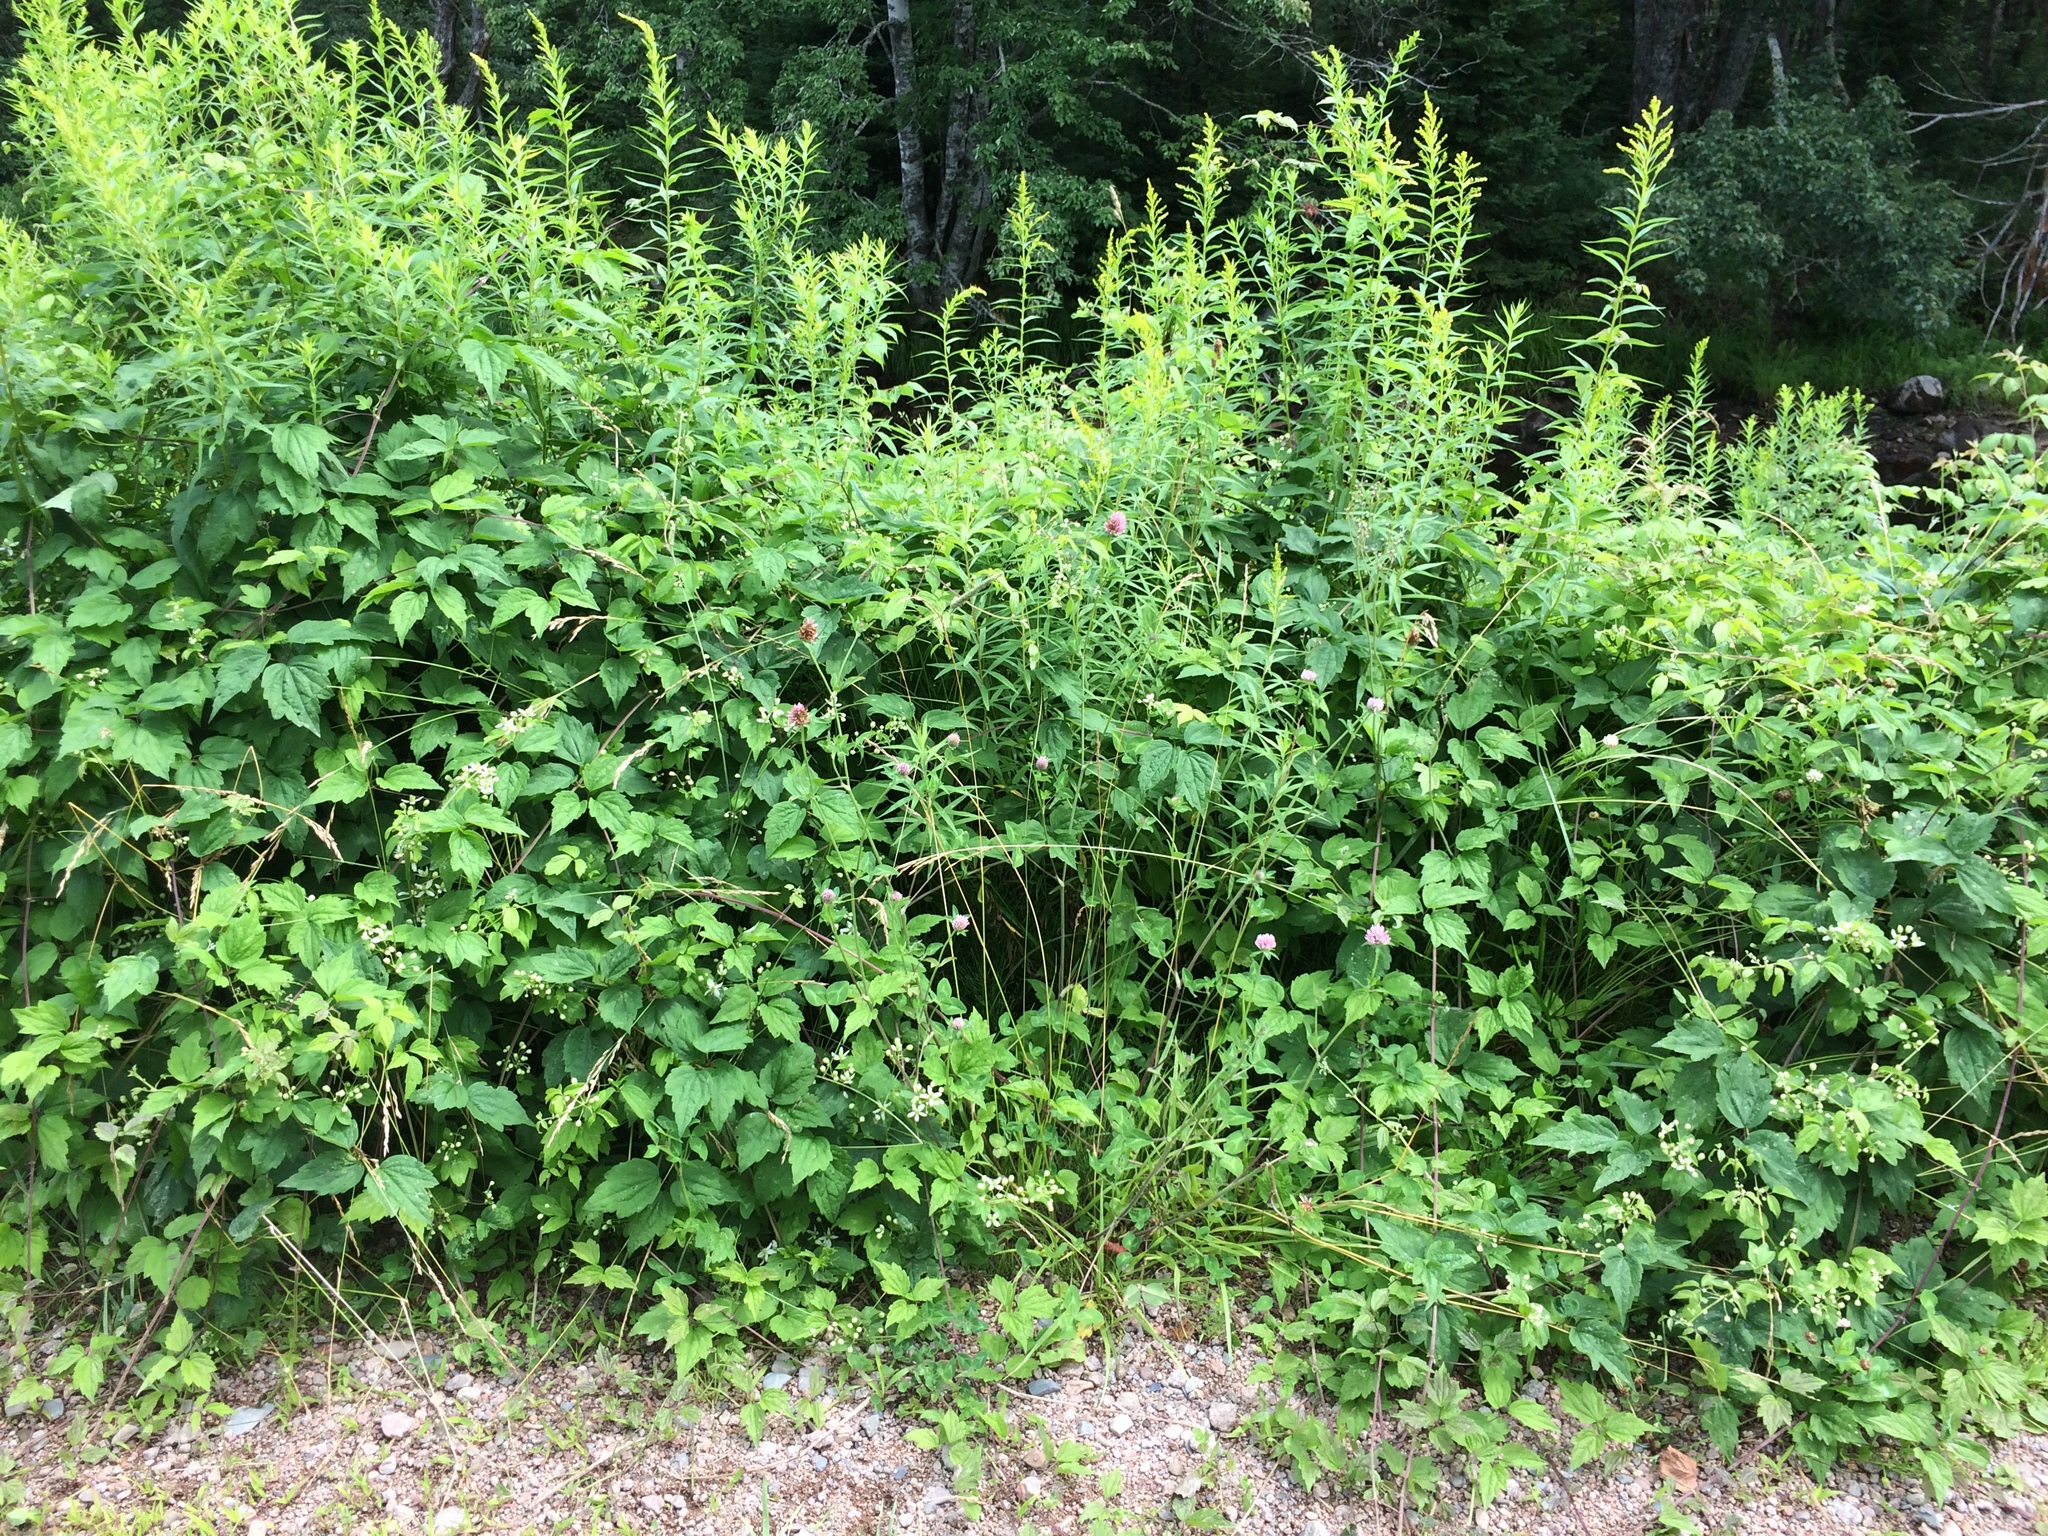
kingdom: Plantae
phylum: Tracheophyta
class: Magnoliopsida
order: Ranunculales
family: Ranunculaceae
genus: Clematis
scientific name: Clematis virginiana
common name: Virgin's-bower
